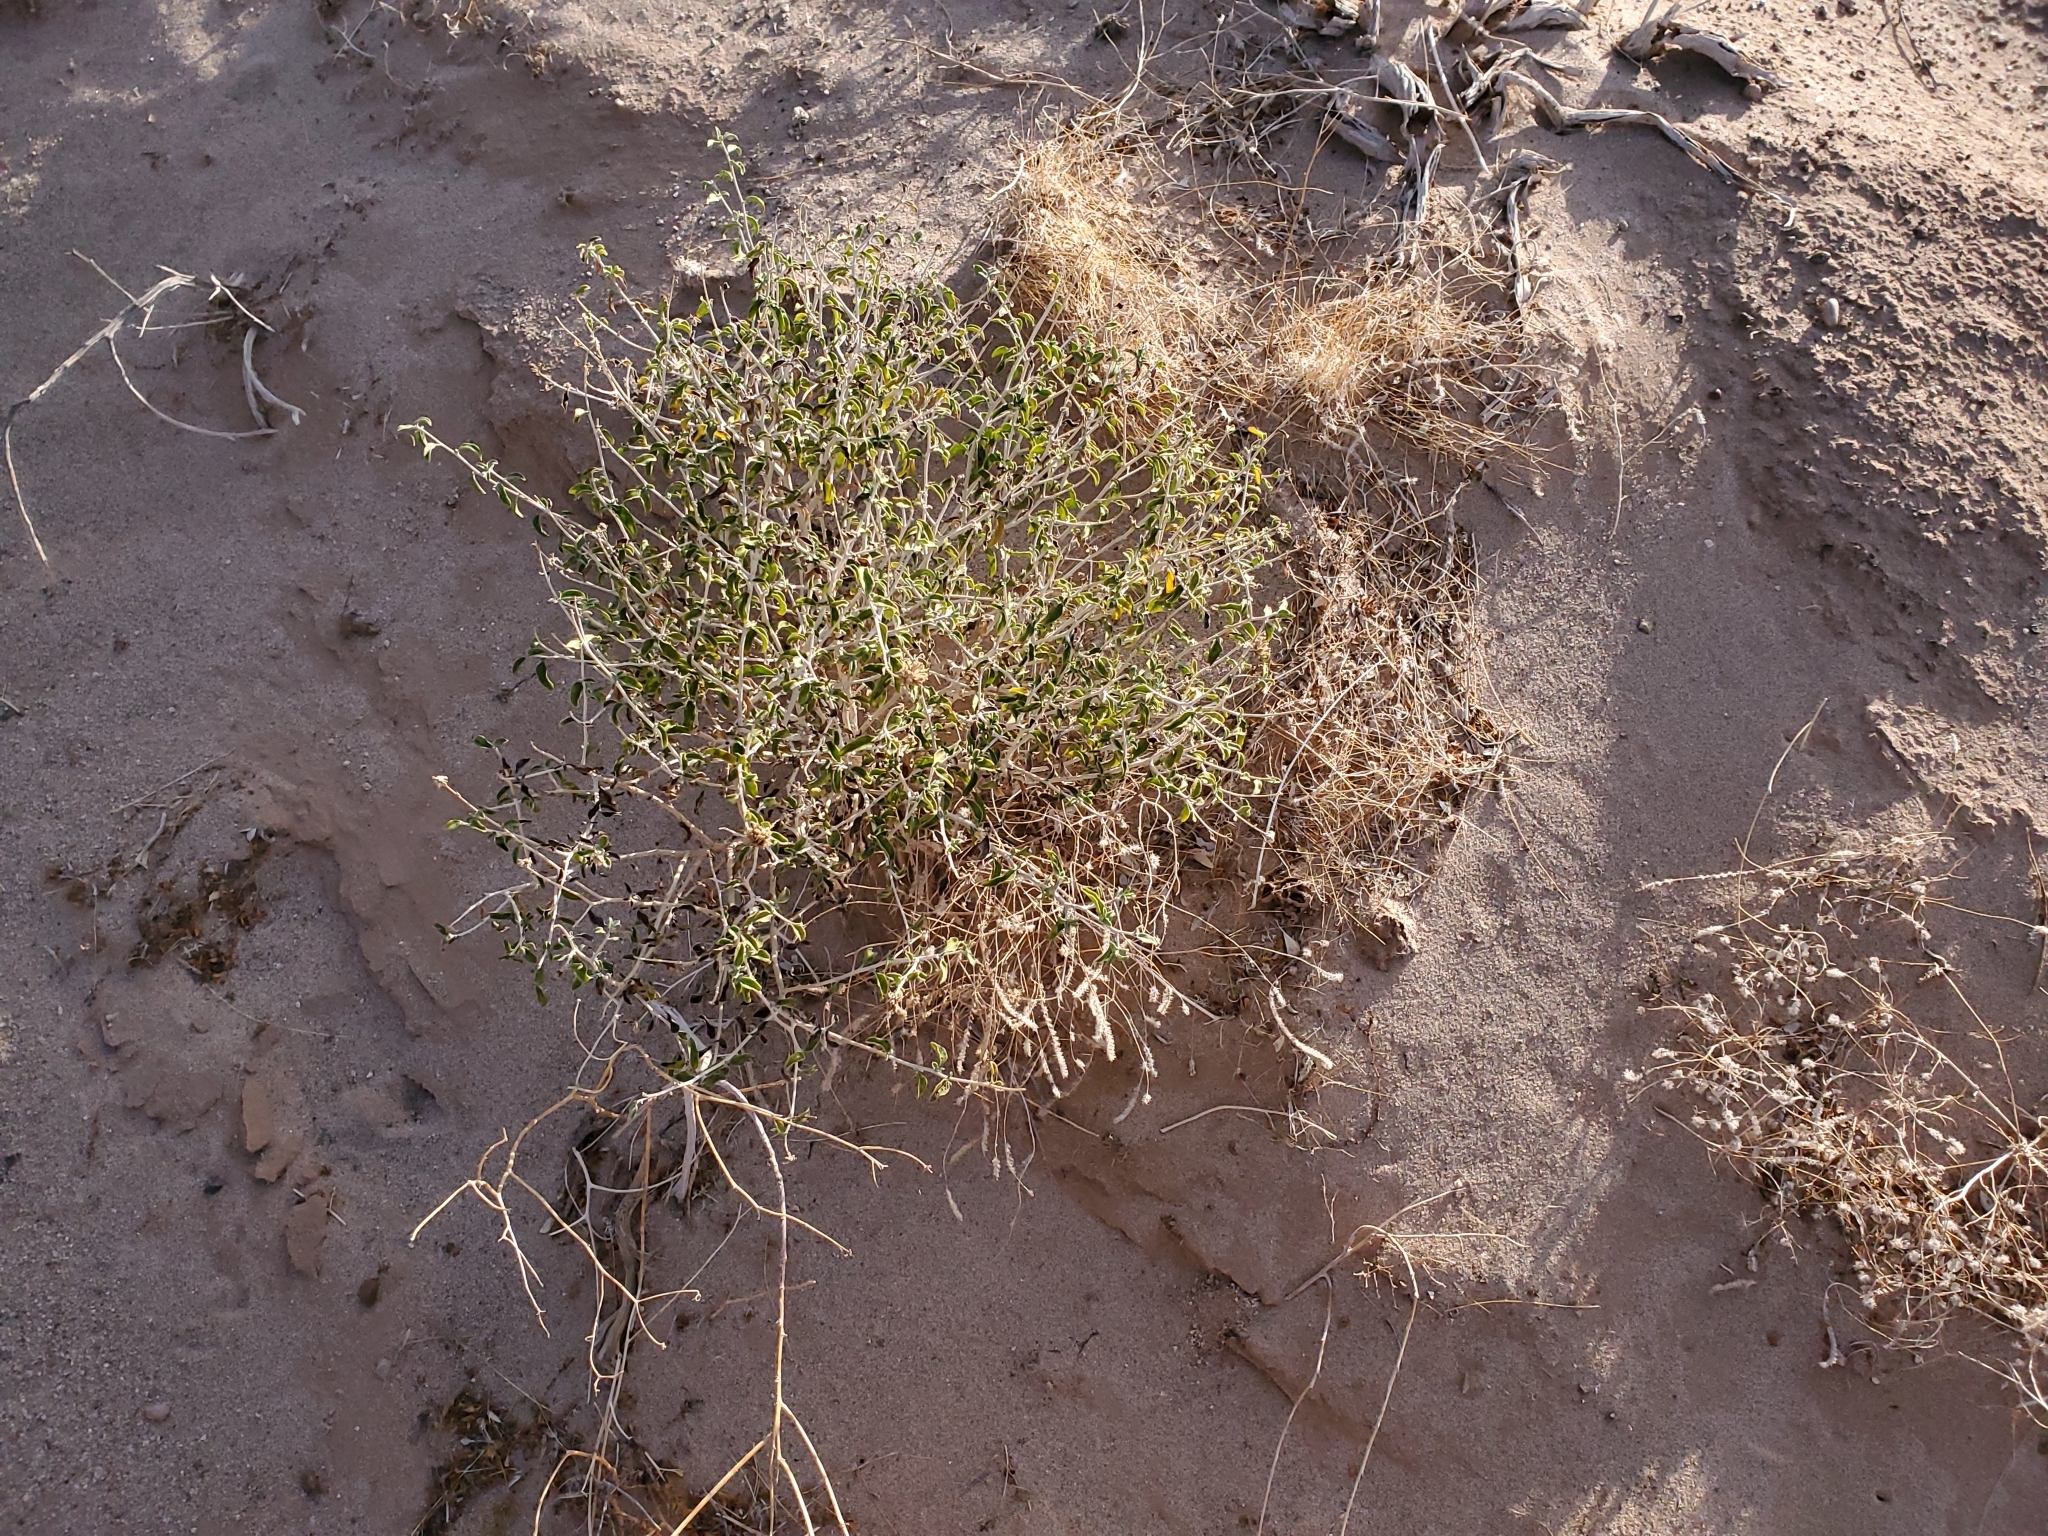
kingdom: Plantae
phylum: Tracheophyta
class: Magnoliopsida
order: Asterales
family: Asteraceae
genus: Encelia
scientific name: Encelia frutescens
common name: Bush encelia
